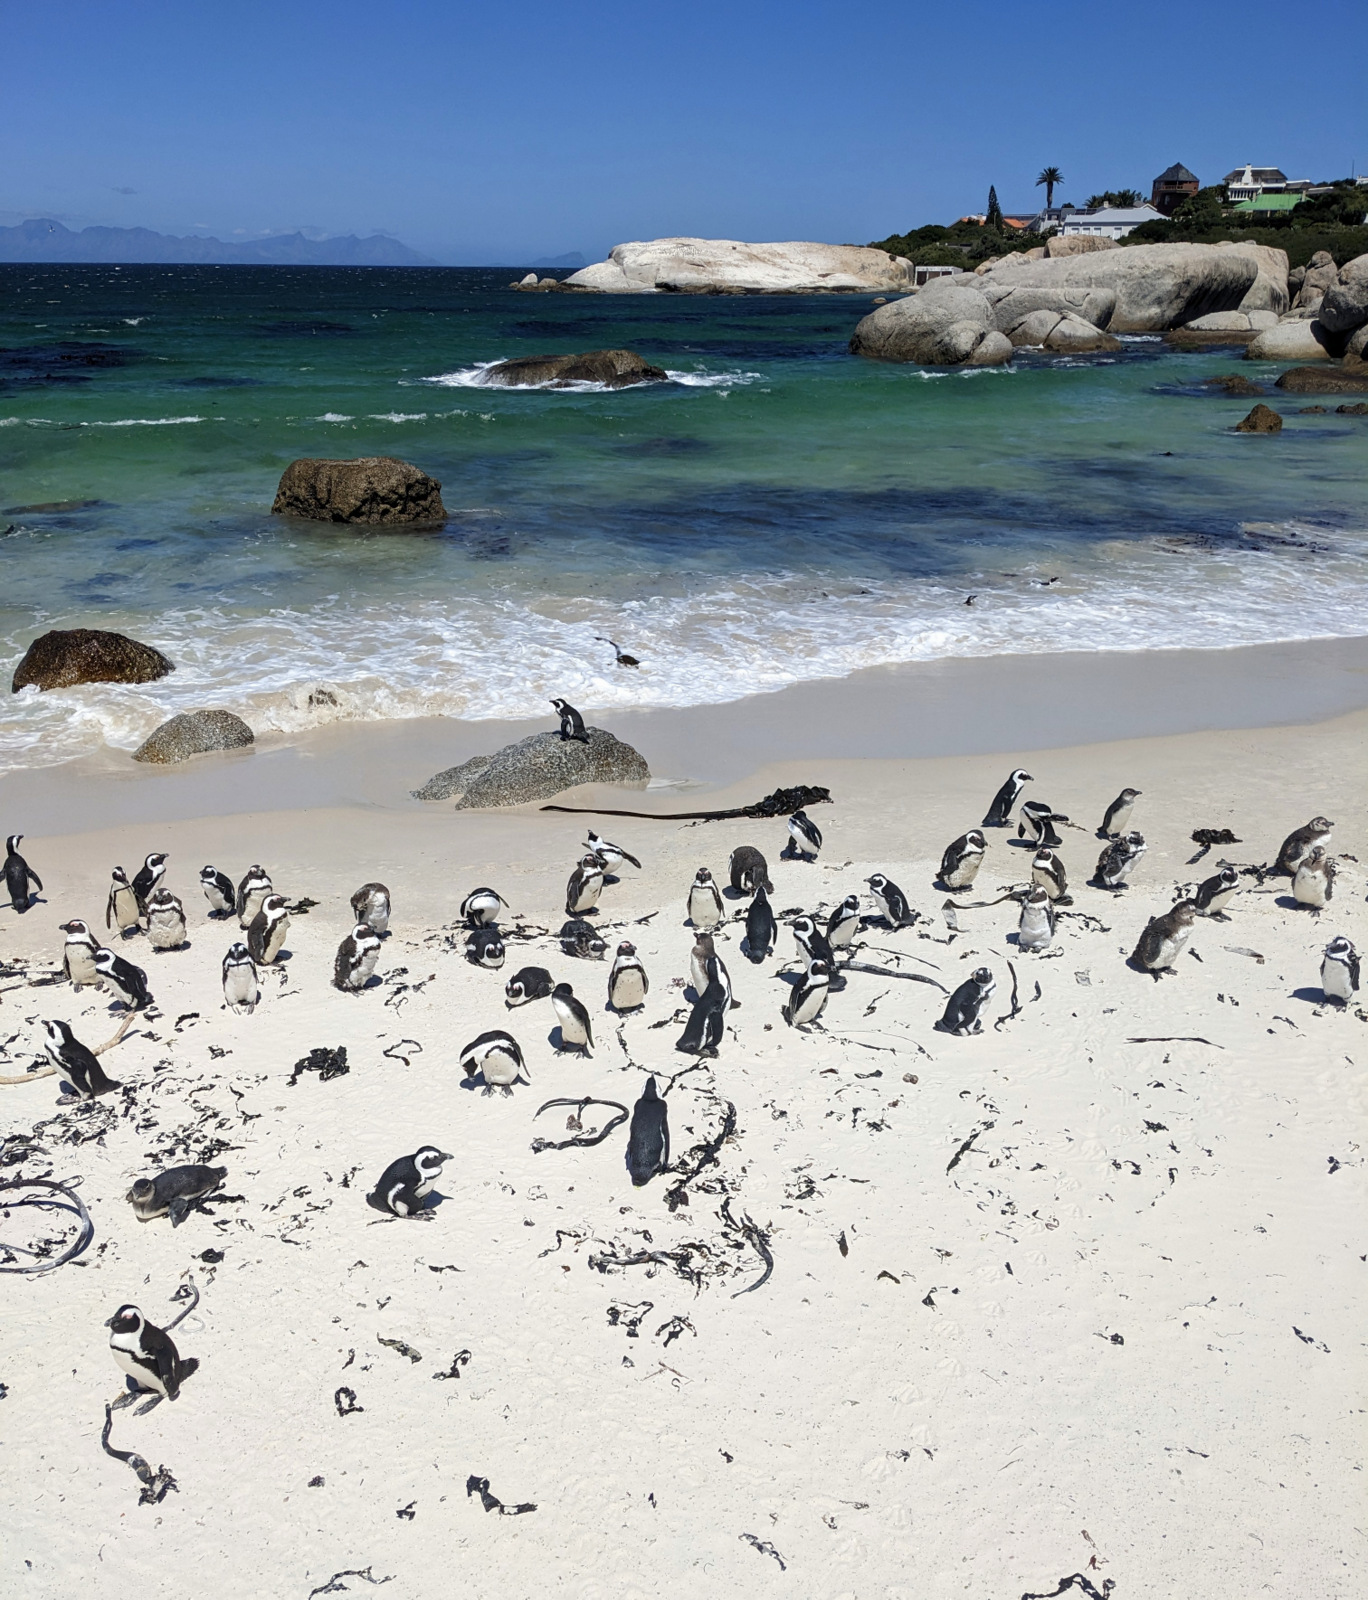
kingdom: Animalia
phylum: Chordata
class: Aves
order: Sphenisciformes
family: Spheniscidae
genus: Spheniscus
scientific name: Spheniscus demersus
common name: African penguin
